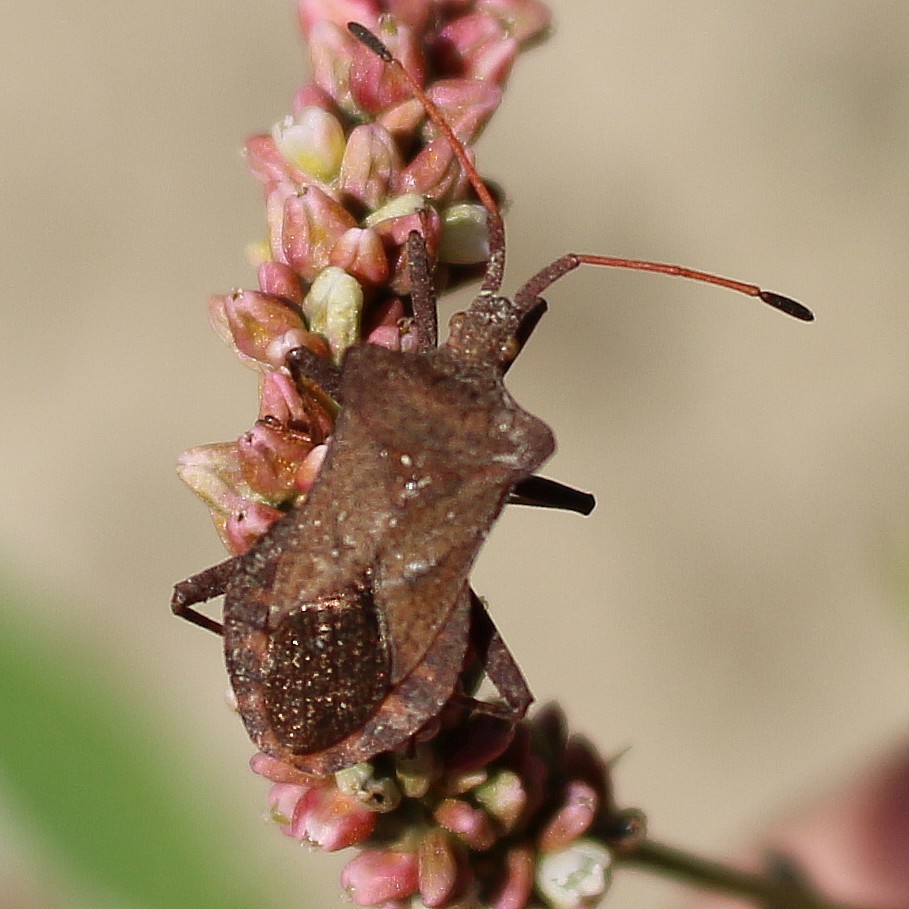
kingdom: Animalia
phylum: Arthropoda
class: Insecta
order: Hemiptera
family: Coreidae
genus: Coreus
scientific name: Coreus marginatus
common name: Dock bug
